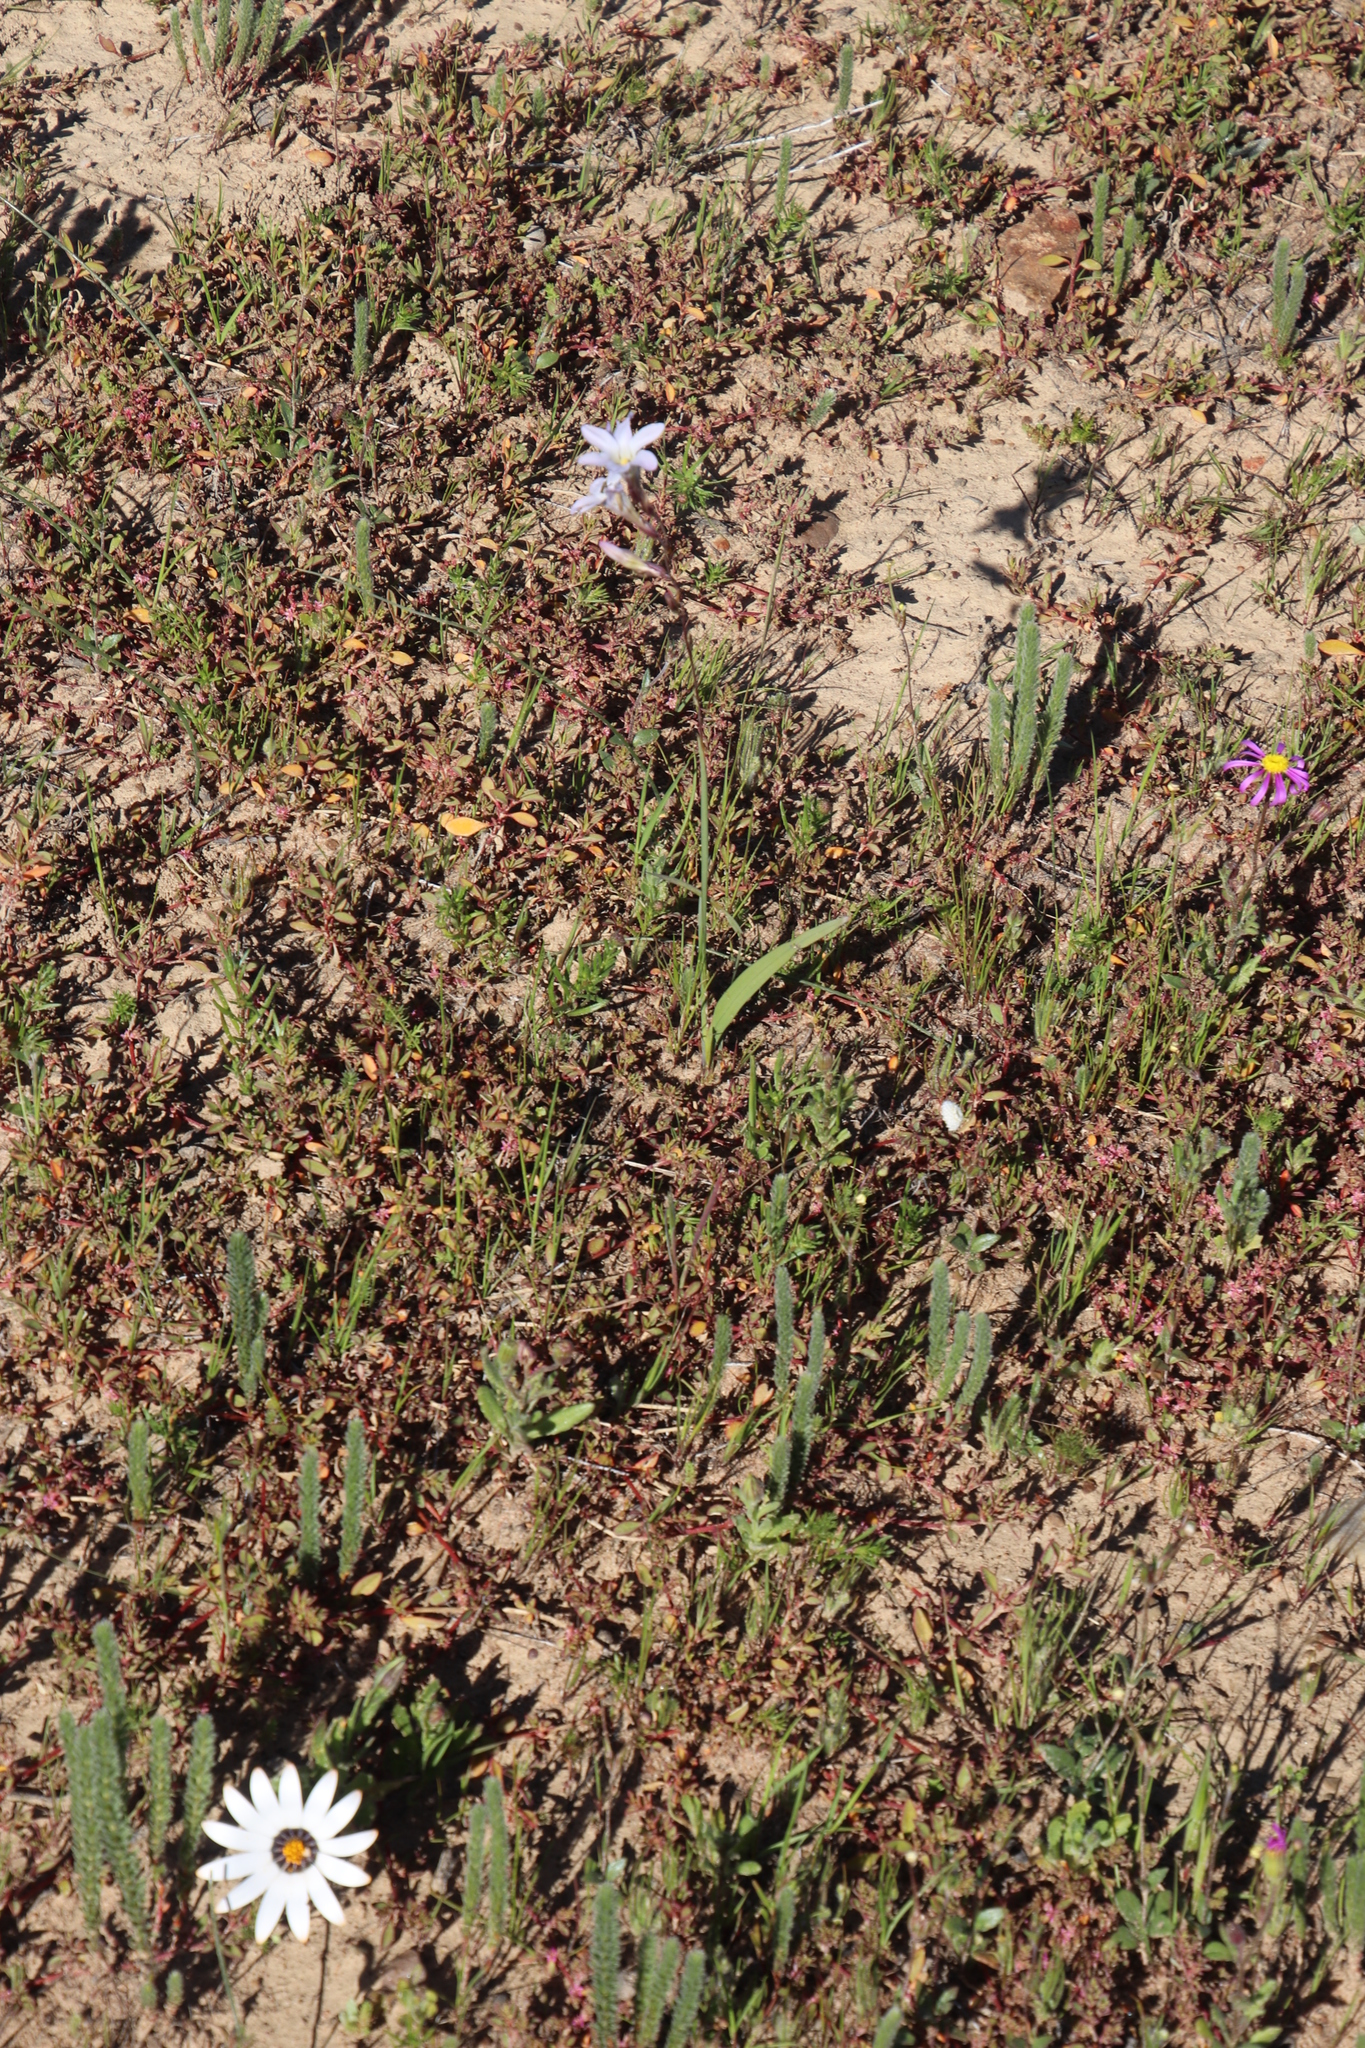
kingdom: Plantae
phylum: Tracheophyta
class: Magnoliopsida
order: Oxalidales
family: Oxalidaceae
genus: Oxalis
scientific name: Oxalis massoniana
